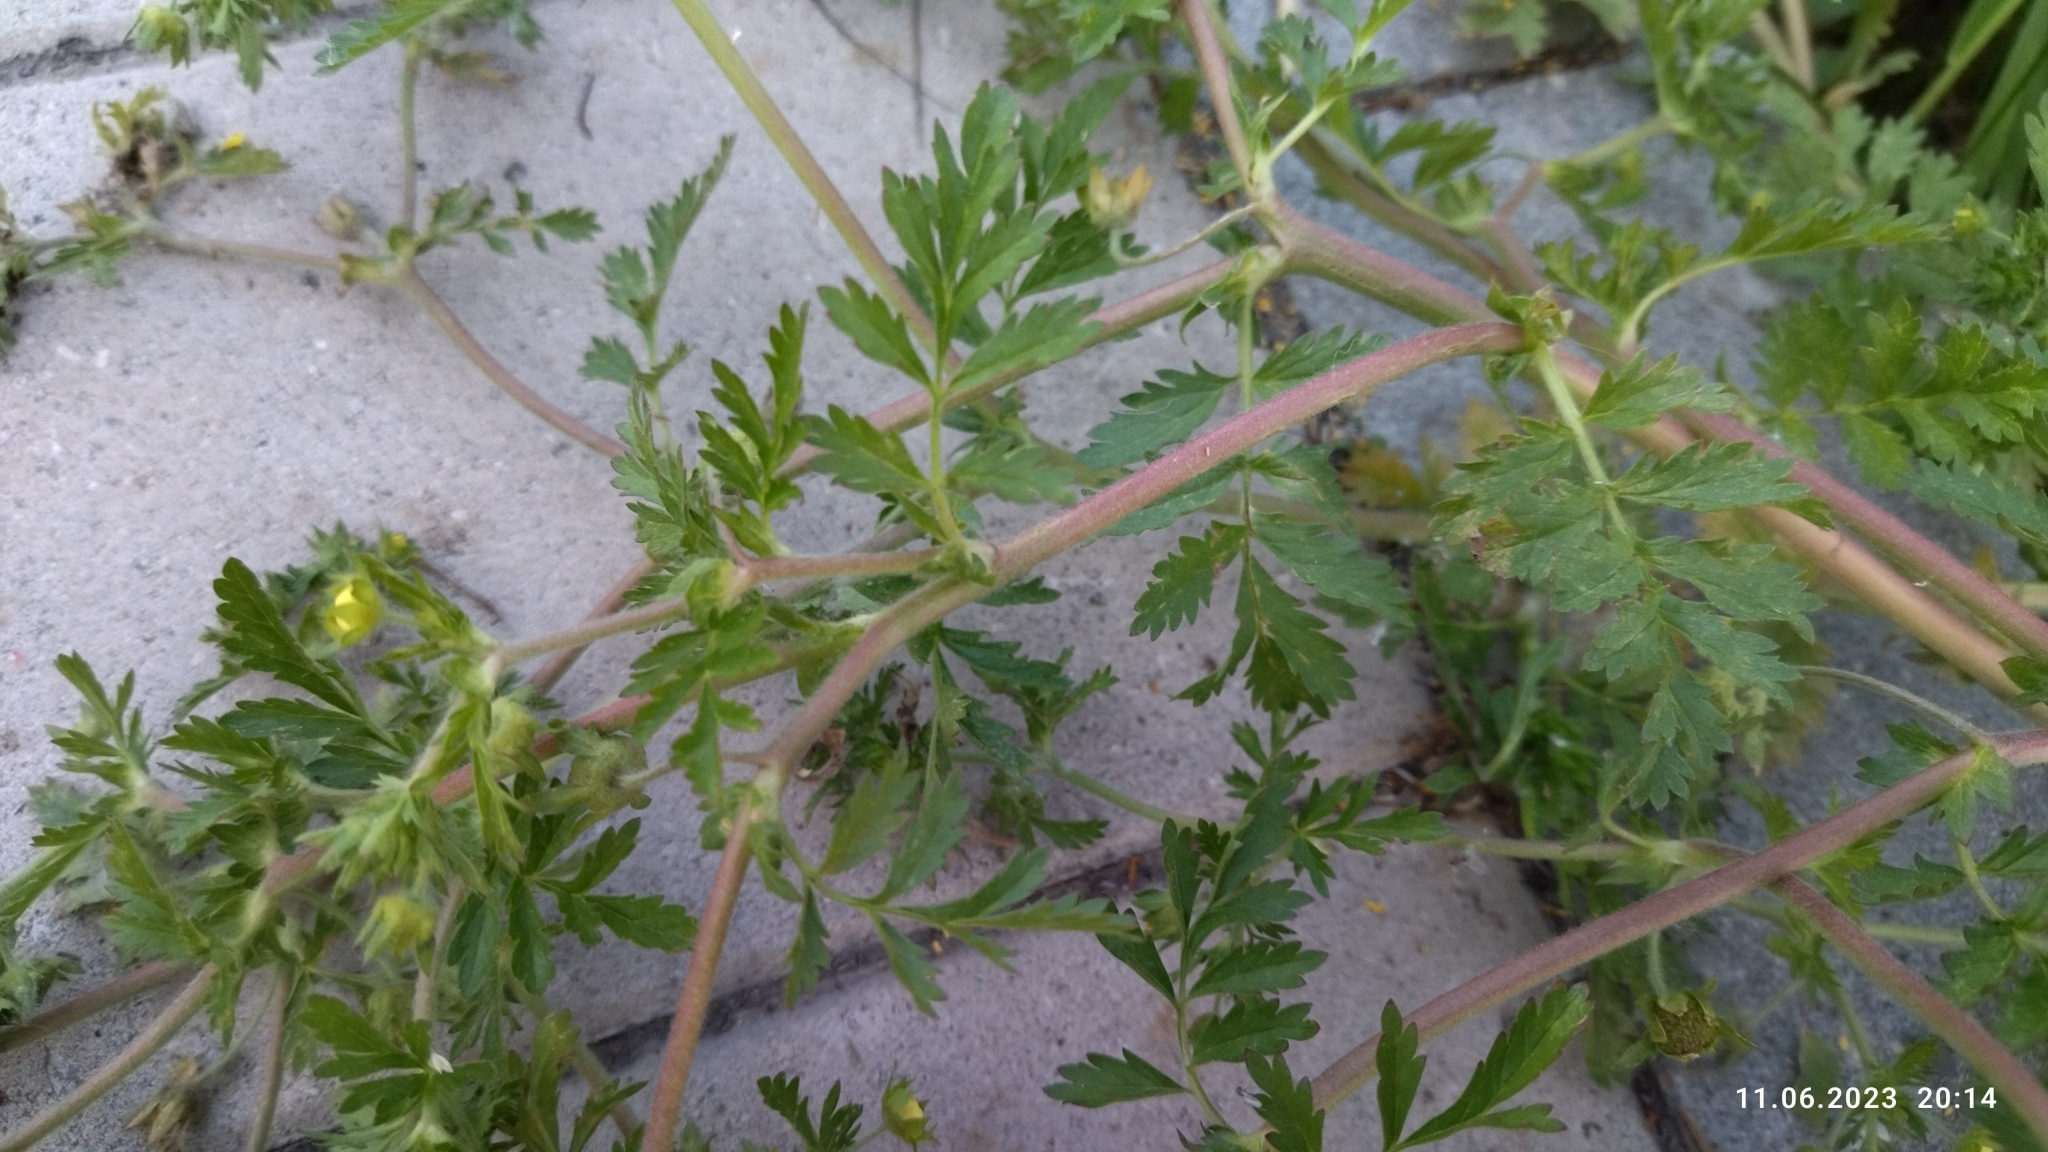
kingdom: Plantae
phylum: Tracheophyta
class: Magnoliopsida
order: Rosales
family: Rosaceae
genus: Potentilla
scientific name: Potentilla supina
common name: Prostrate cinquefoil
